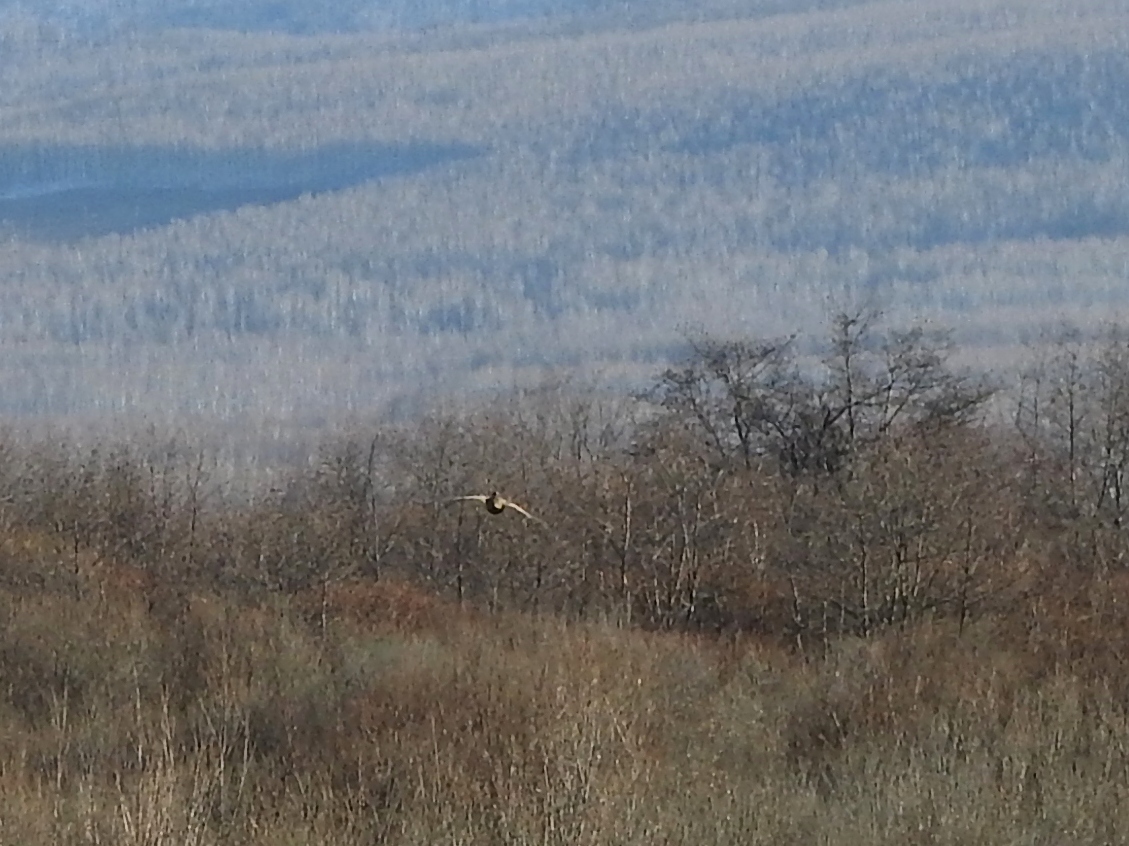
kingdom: Animalia
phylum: Chordata
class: Aves
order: Galliformes
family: Phasianidae
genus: Lyrurus
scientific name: Lyrurus tetrix
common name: Black grouse
